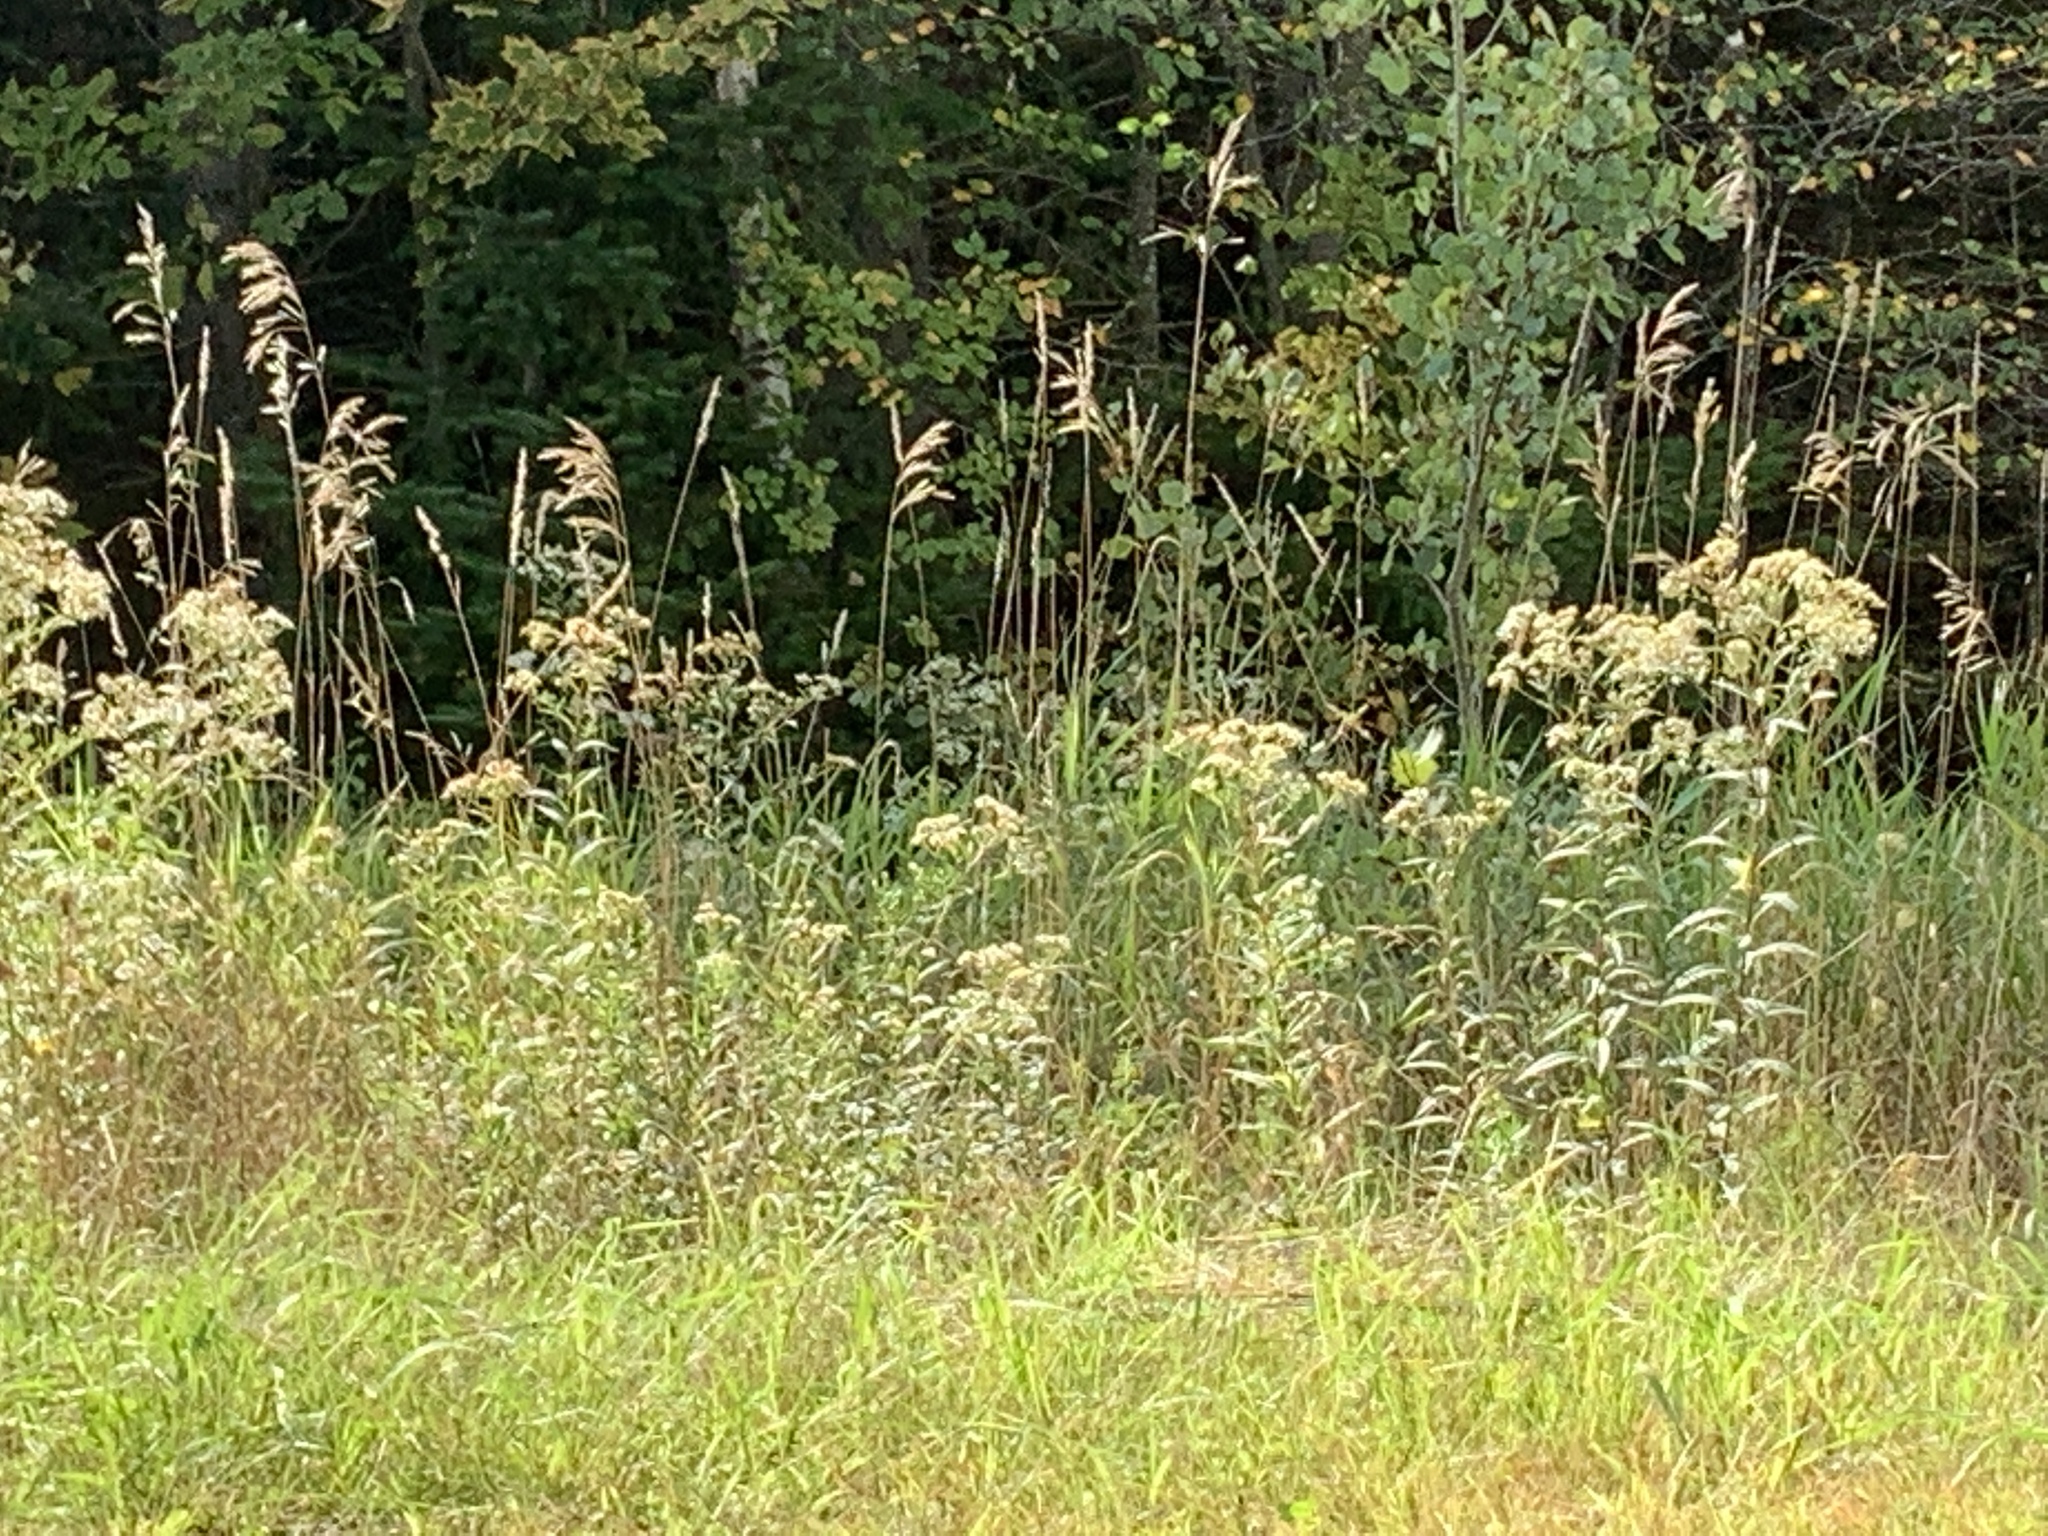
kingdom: Plantae
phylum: Tracheophyta
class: Magnoliopsida
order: Asterales
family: Asteraceae
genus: Doellingeria
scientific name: Doellingeria umbellata
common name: Flat-top white aster
